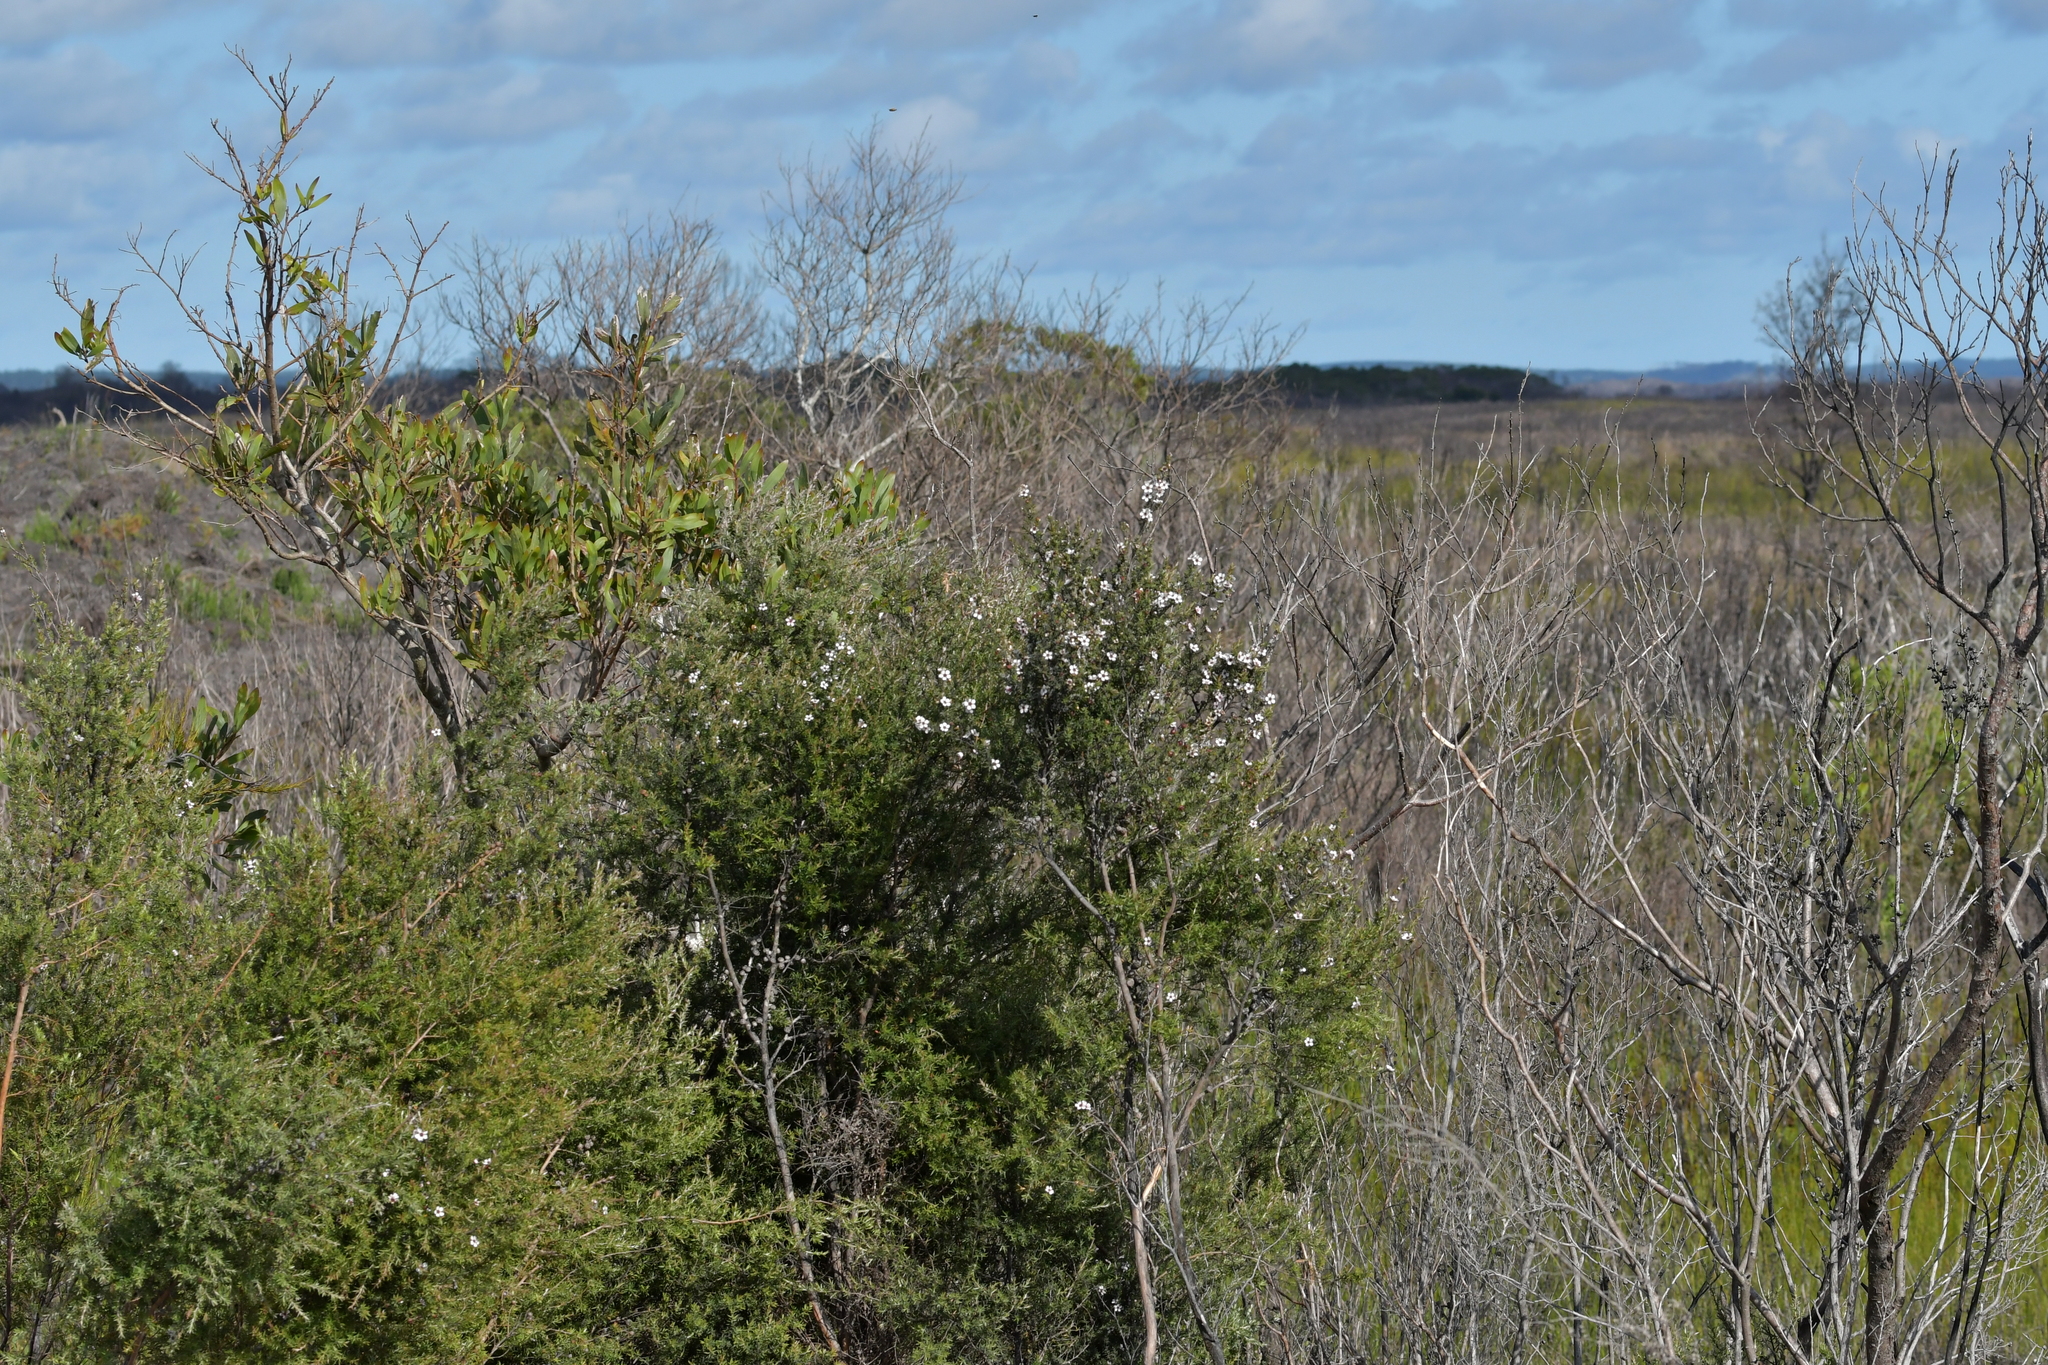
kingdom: Plantae
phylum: Tracheophyta
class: Magnoliopsida
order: Myrtales
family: Myrtaceae
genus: Leptospermum
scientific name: Leptospermum scoparium
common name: Broom tea-tree
